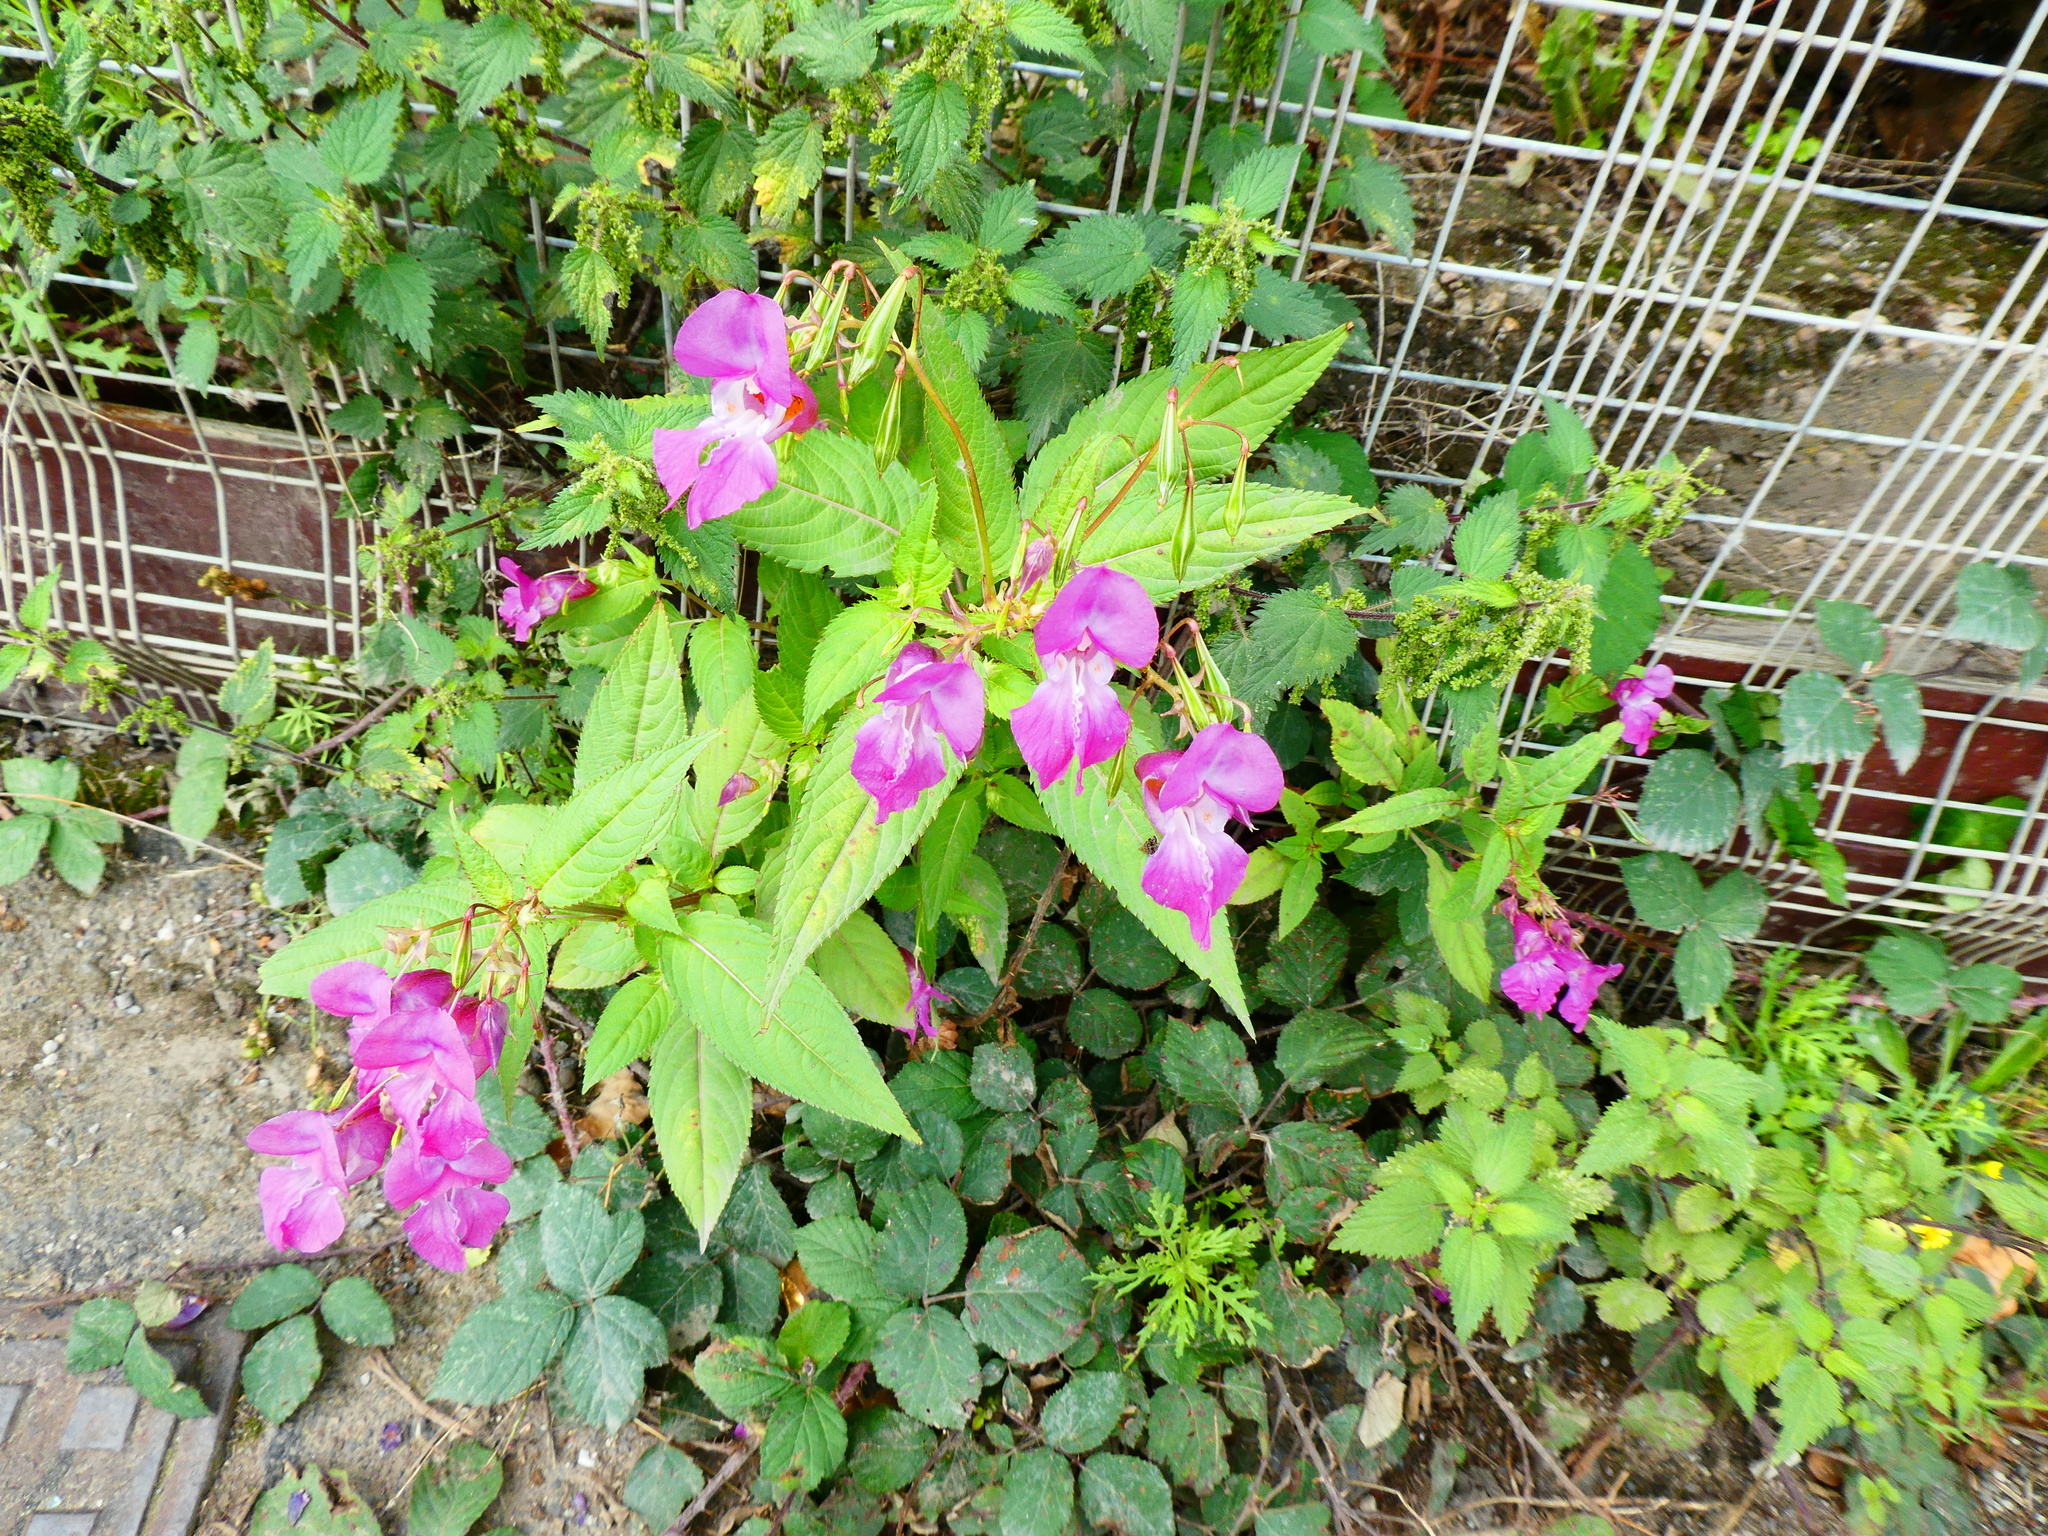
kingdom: Plantae
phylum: Tracheophyta
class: Magnoliopsida
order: Ericales
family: Balsaminaceae
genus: Impatiens
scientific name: Impatiens glandulifera
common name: Himalayan balsam
